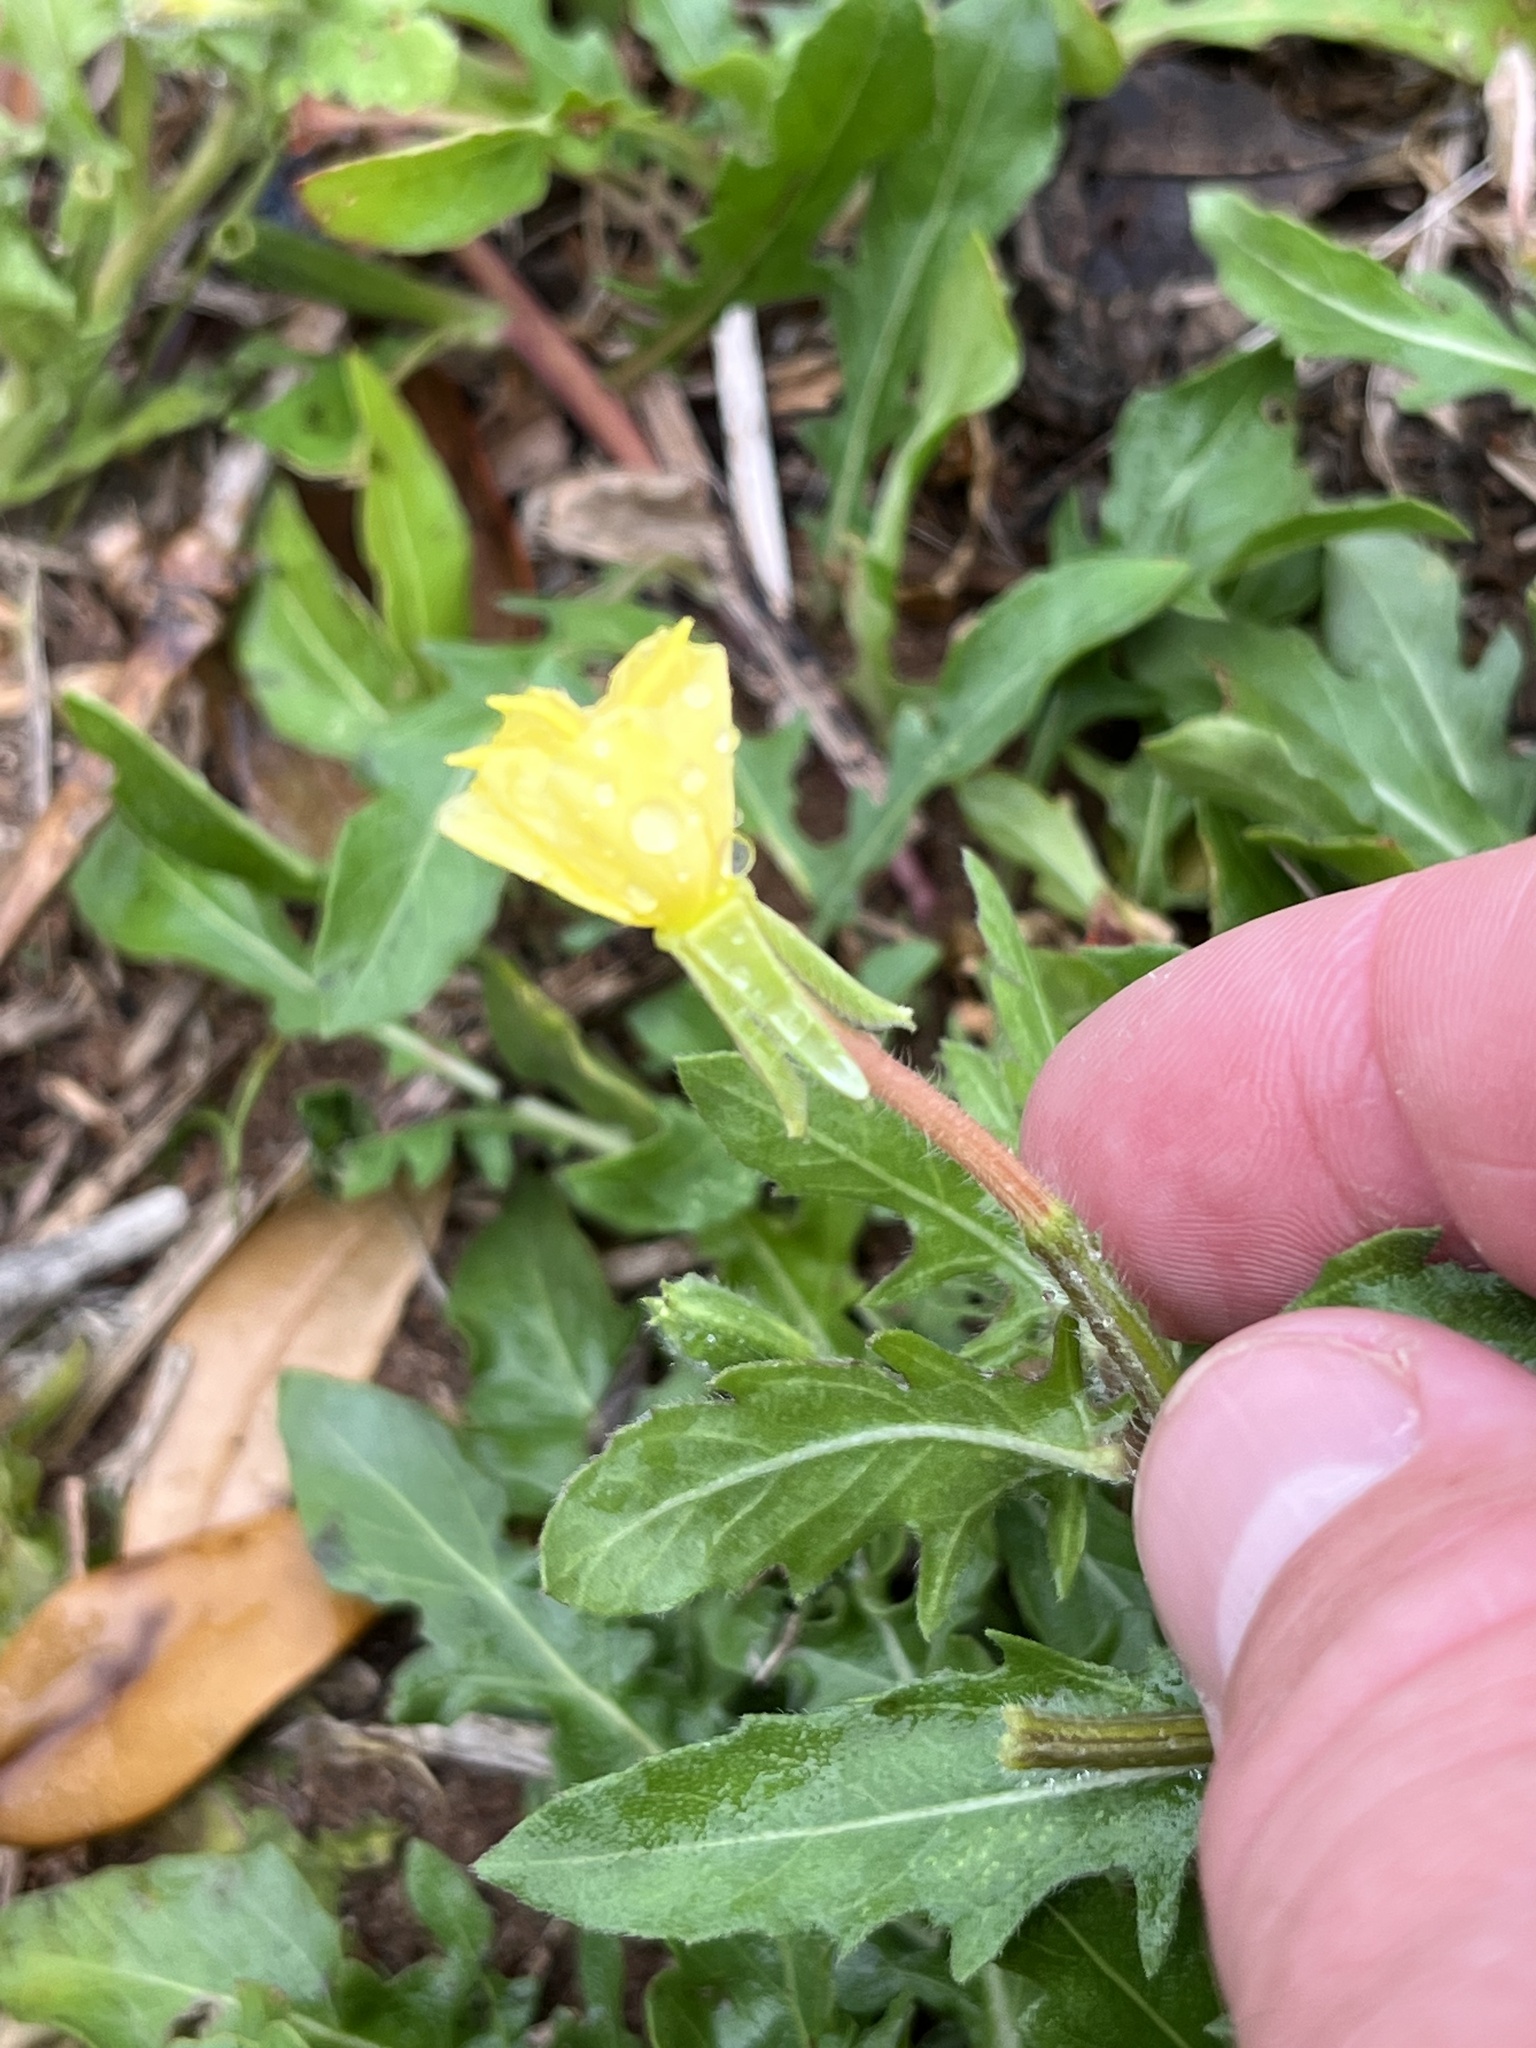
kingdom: Plantae
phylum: Tracheophyta
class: Magnoliopsida
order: Myrtales
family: Onagraceae
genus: Oenothera
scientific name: Oenothera laciniata
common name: Cut-leaved evening-primrose
